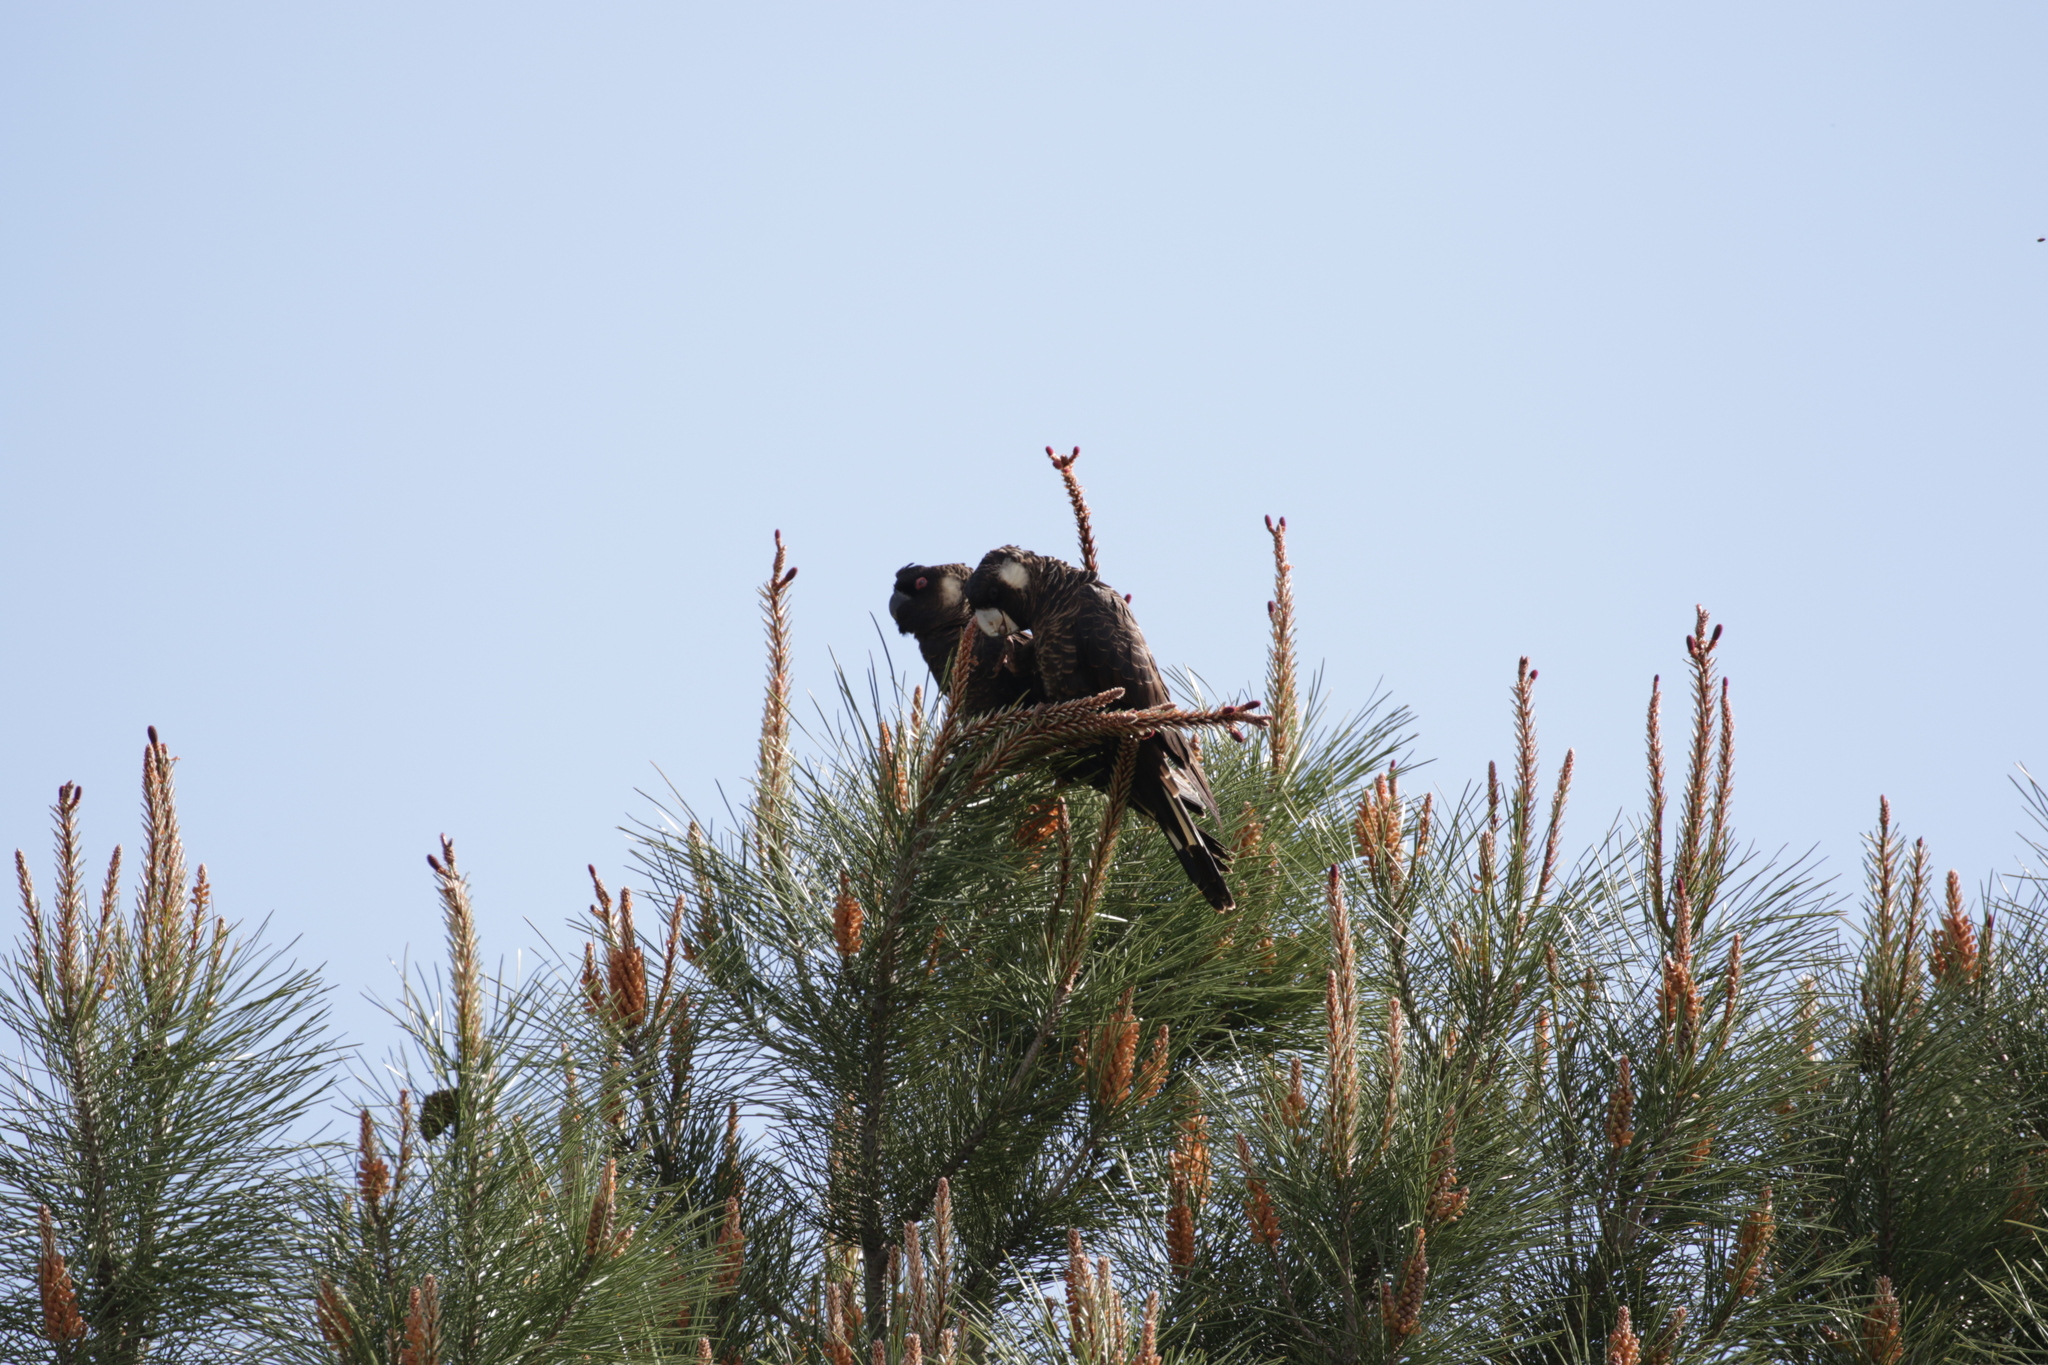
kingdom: Animalia
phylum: Chordata
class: Aves
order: Psittaciformes
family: Cacatuidae
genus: Zanda
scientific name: Zanda latirostris
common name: Short-billed black-cockatoo
